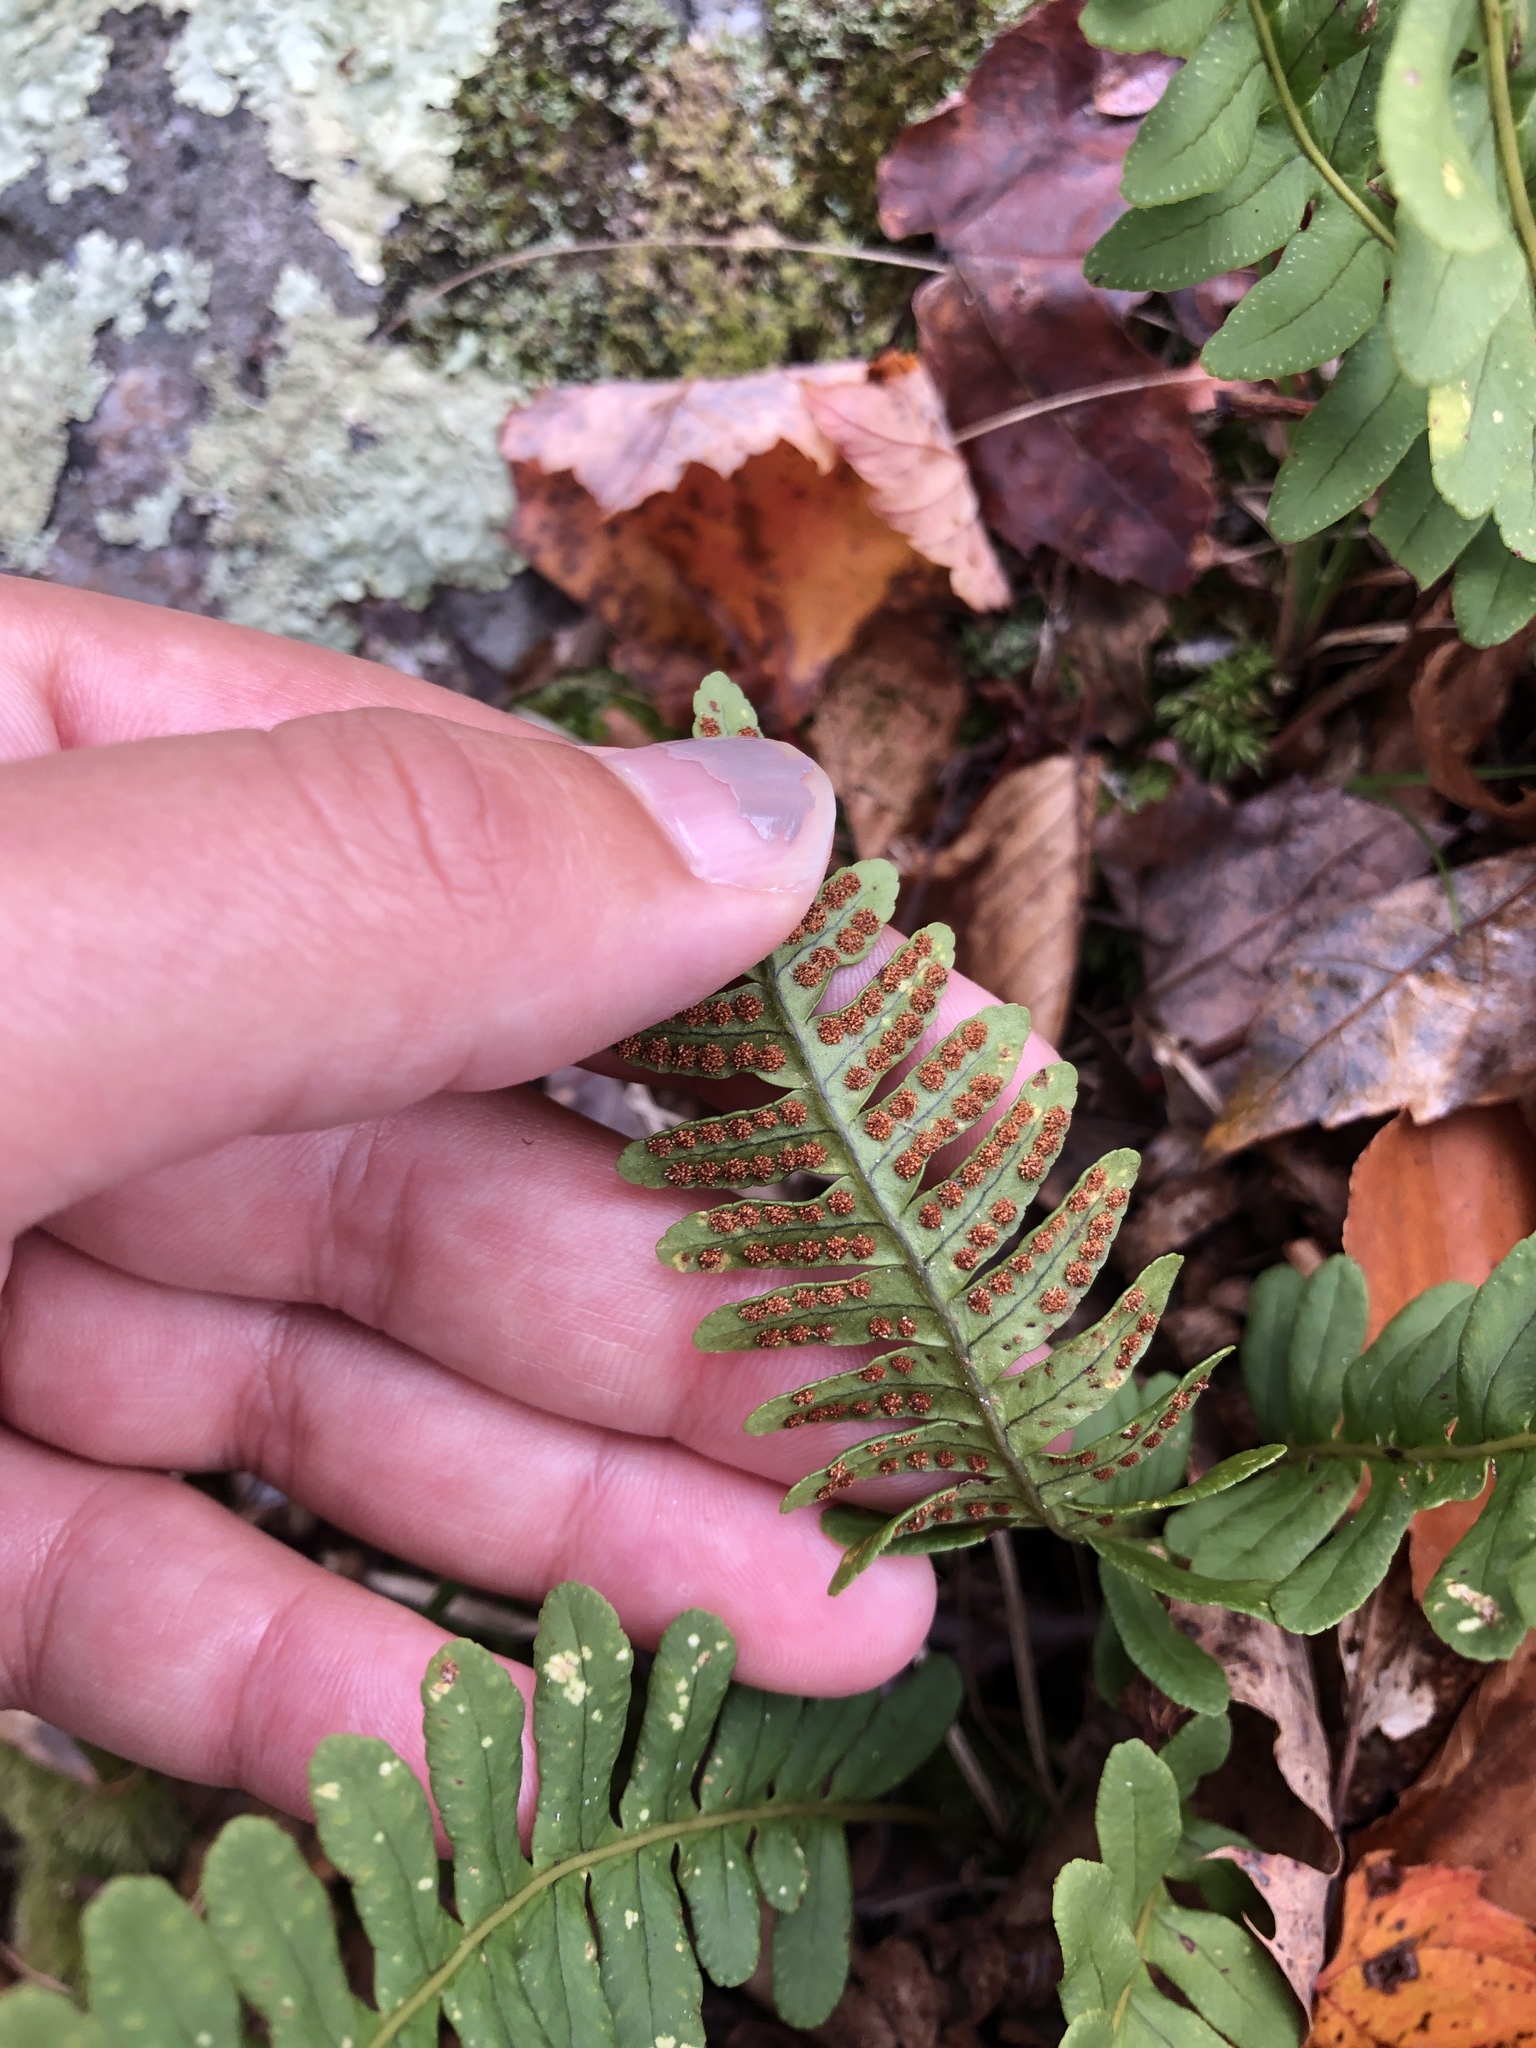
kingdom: Plantae
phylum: Tracheophyta
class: Polypodiopsida
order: Polypodiales
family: Polypodiaceae
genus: Polypodium
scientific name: Polypodium virginianum
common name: American wall fern
